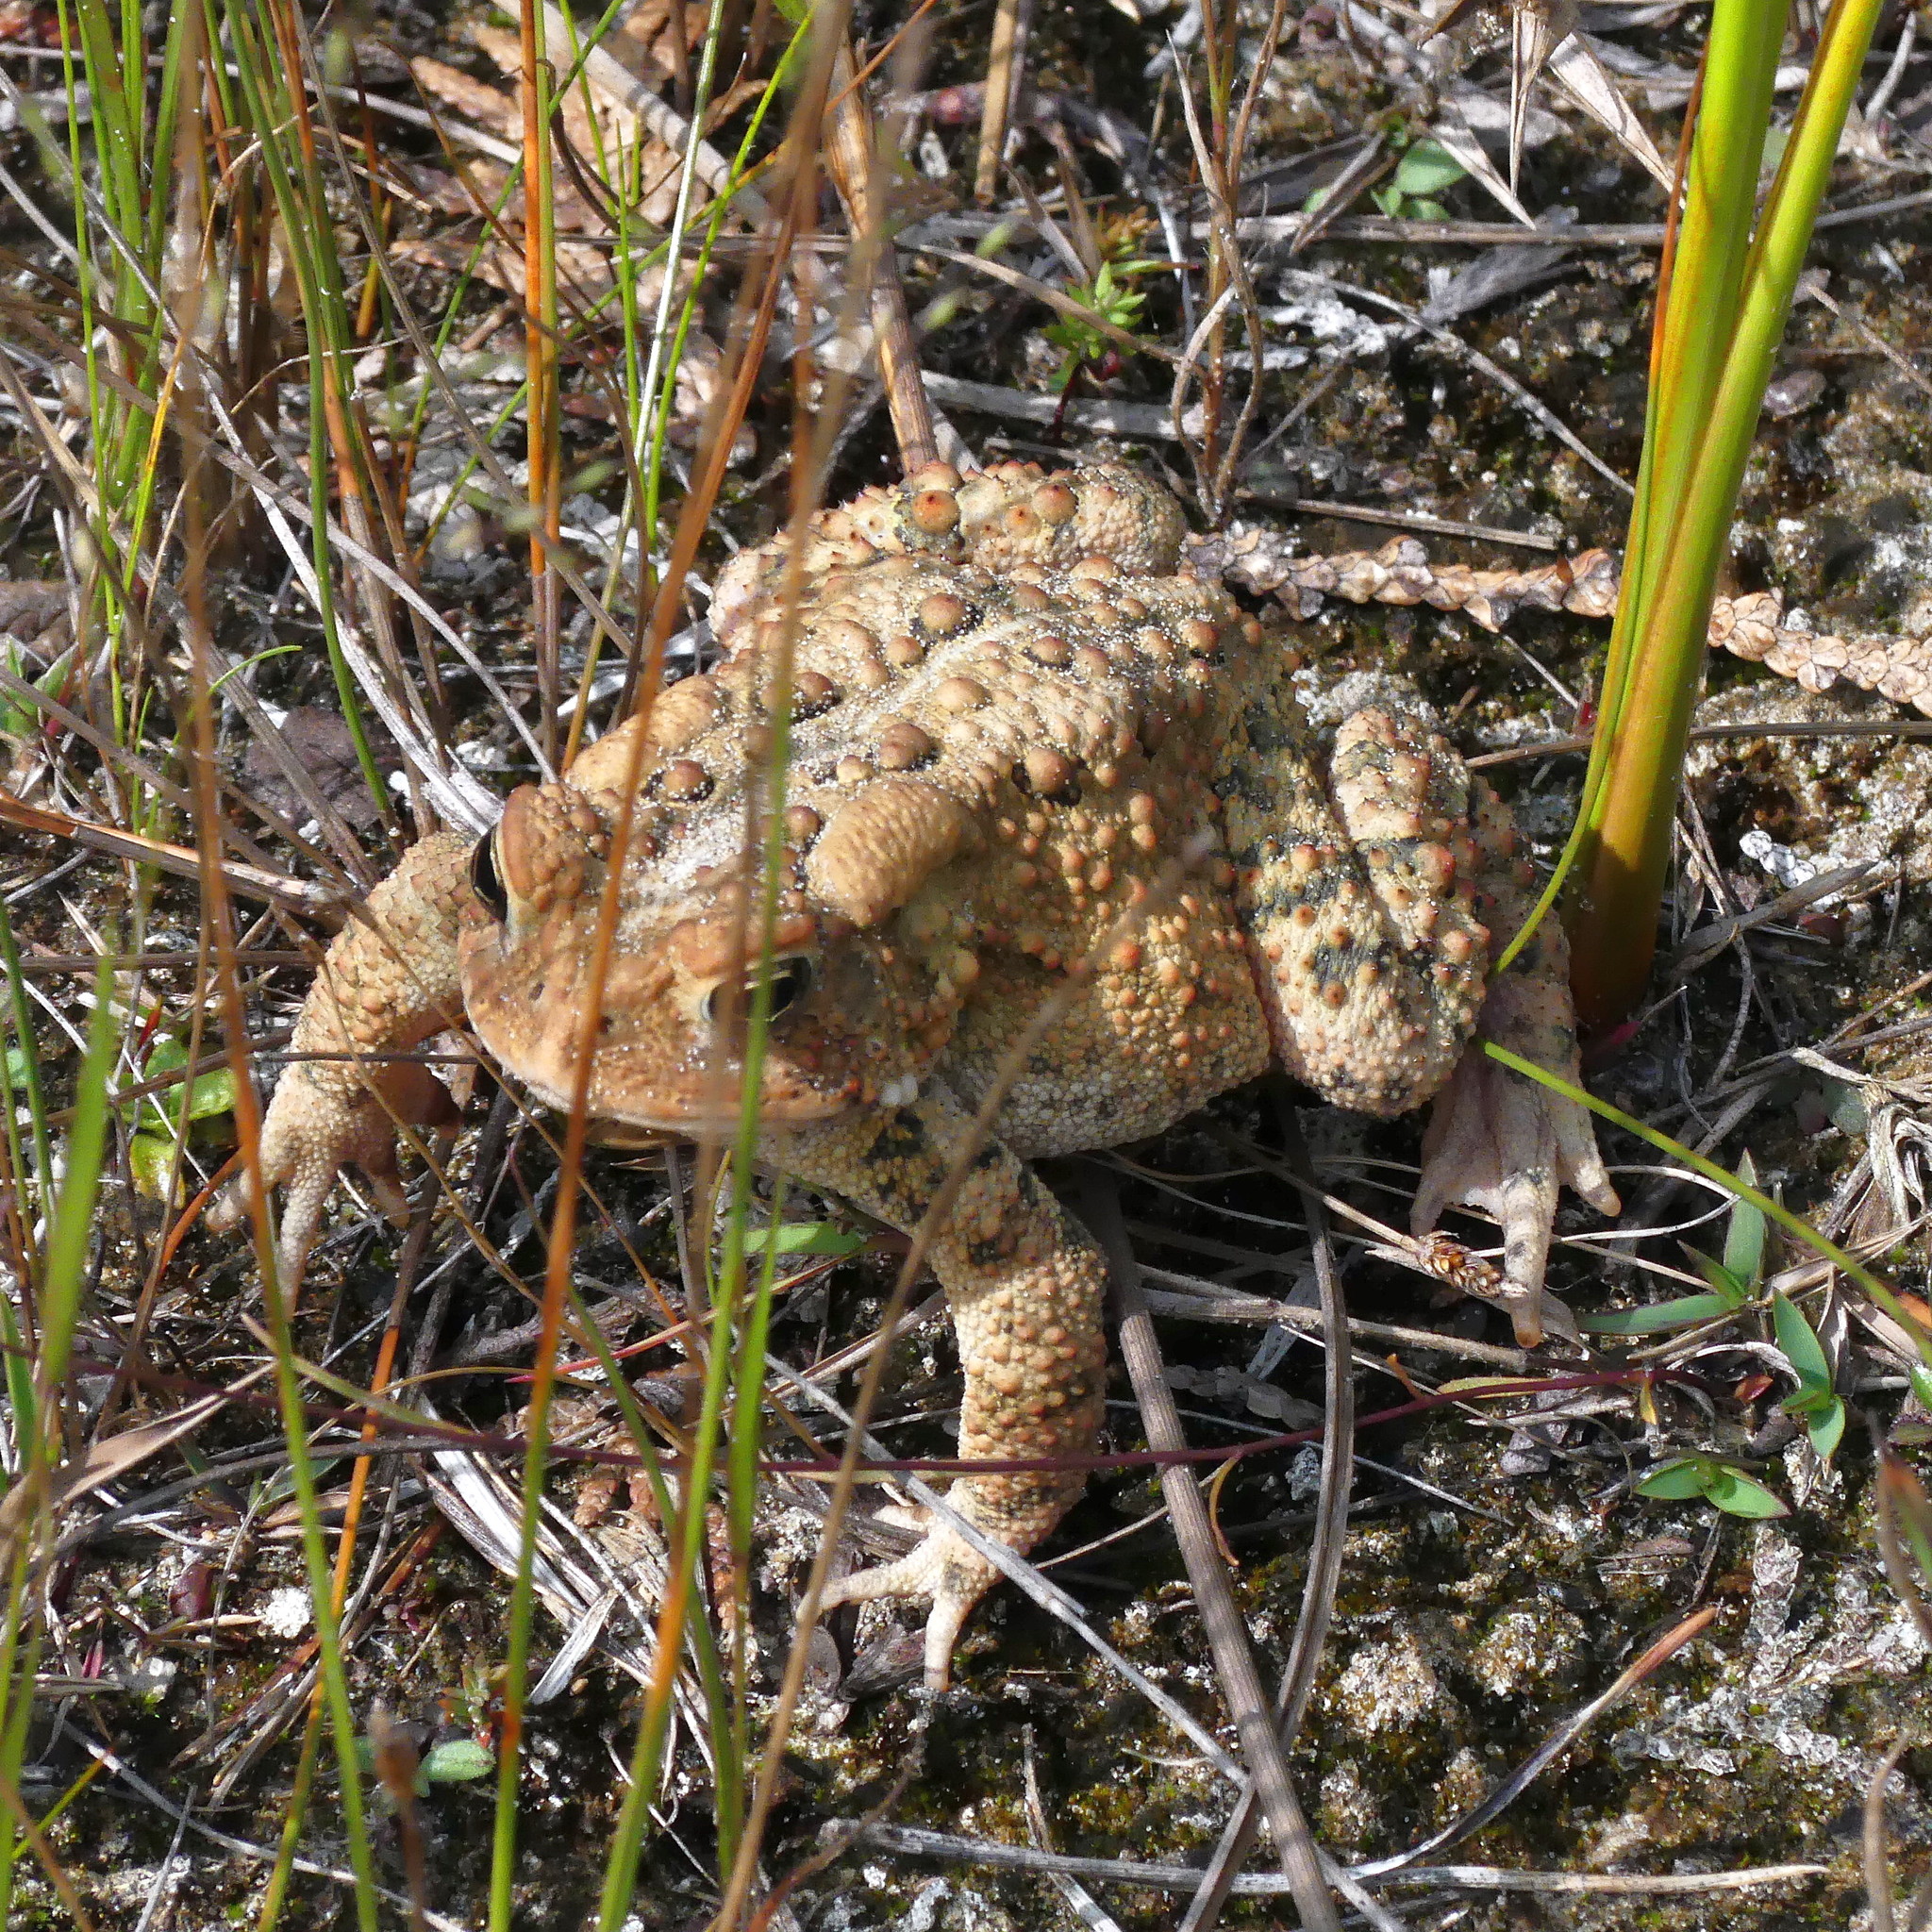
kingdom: Animalia
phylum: Chordata
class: Amphibia
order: Anura
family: Bufonidae
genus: Anaxyrus
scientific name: Anaxyrus americanus
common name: American toad
